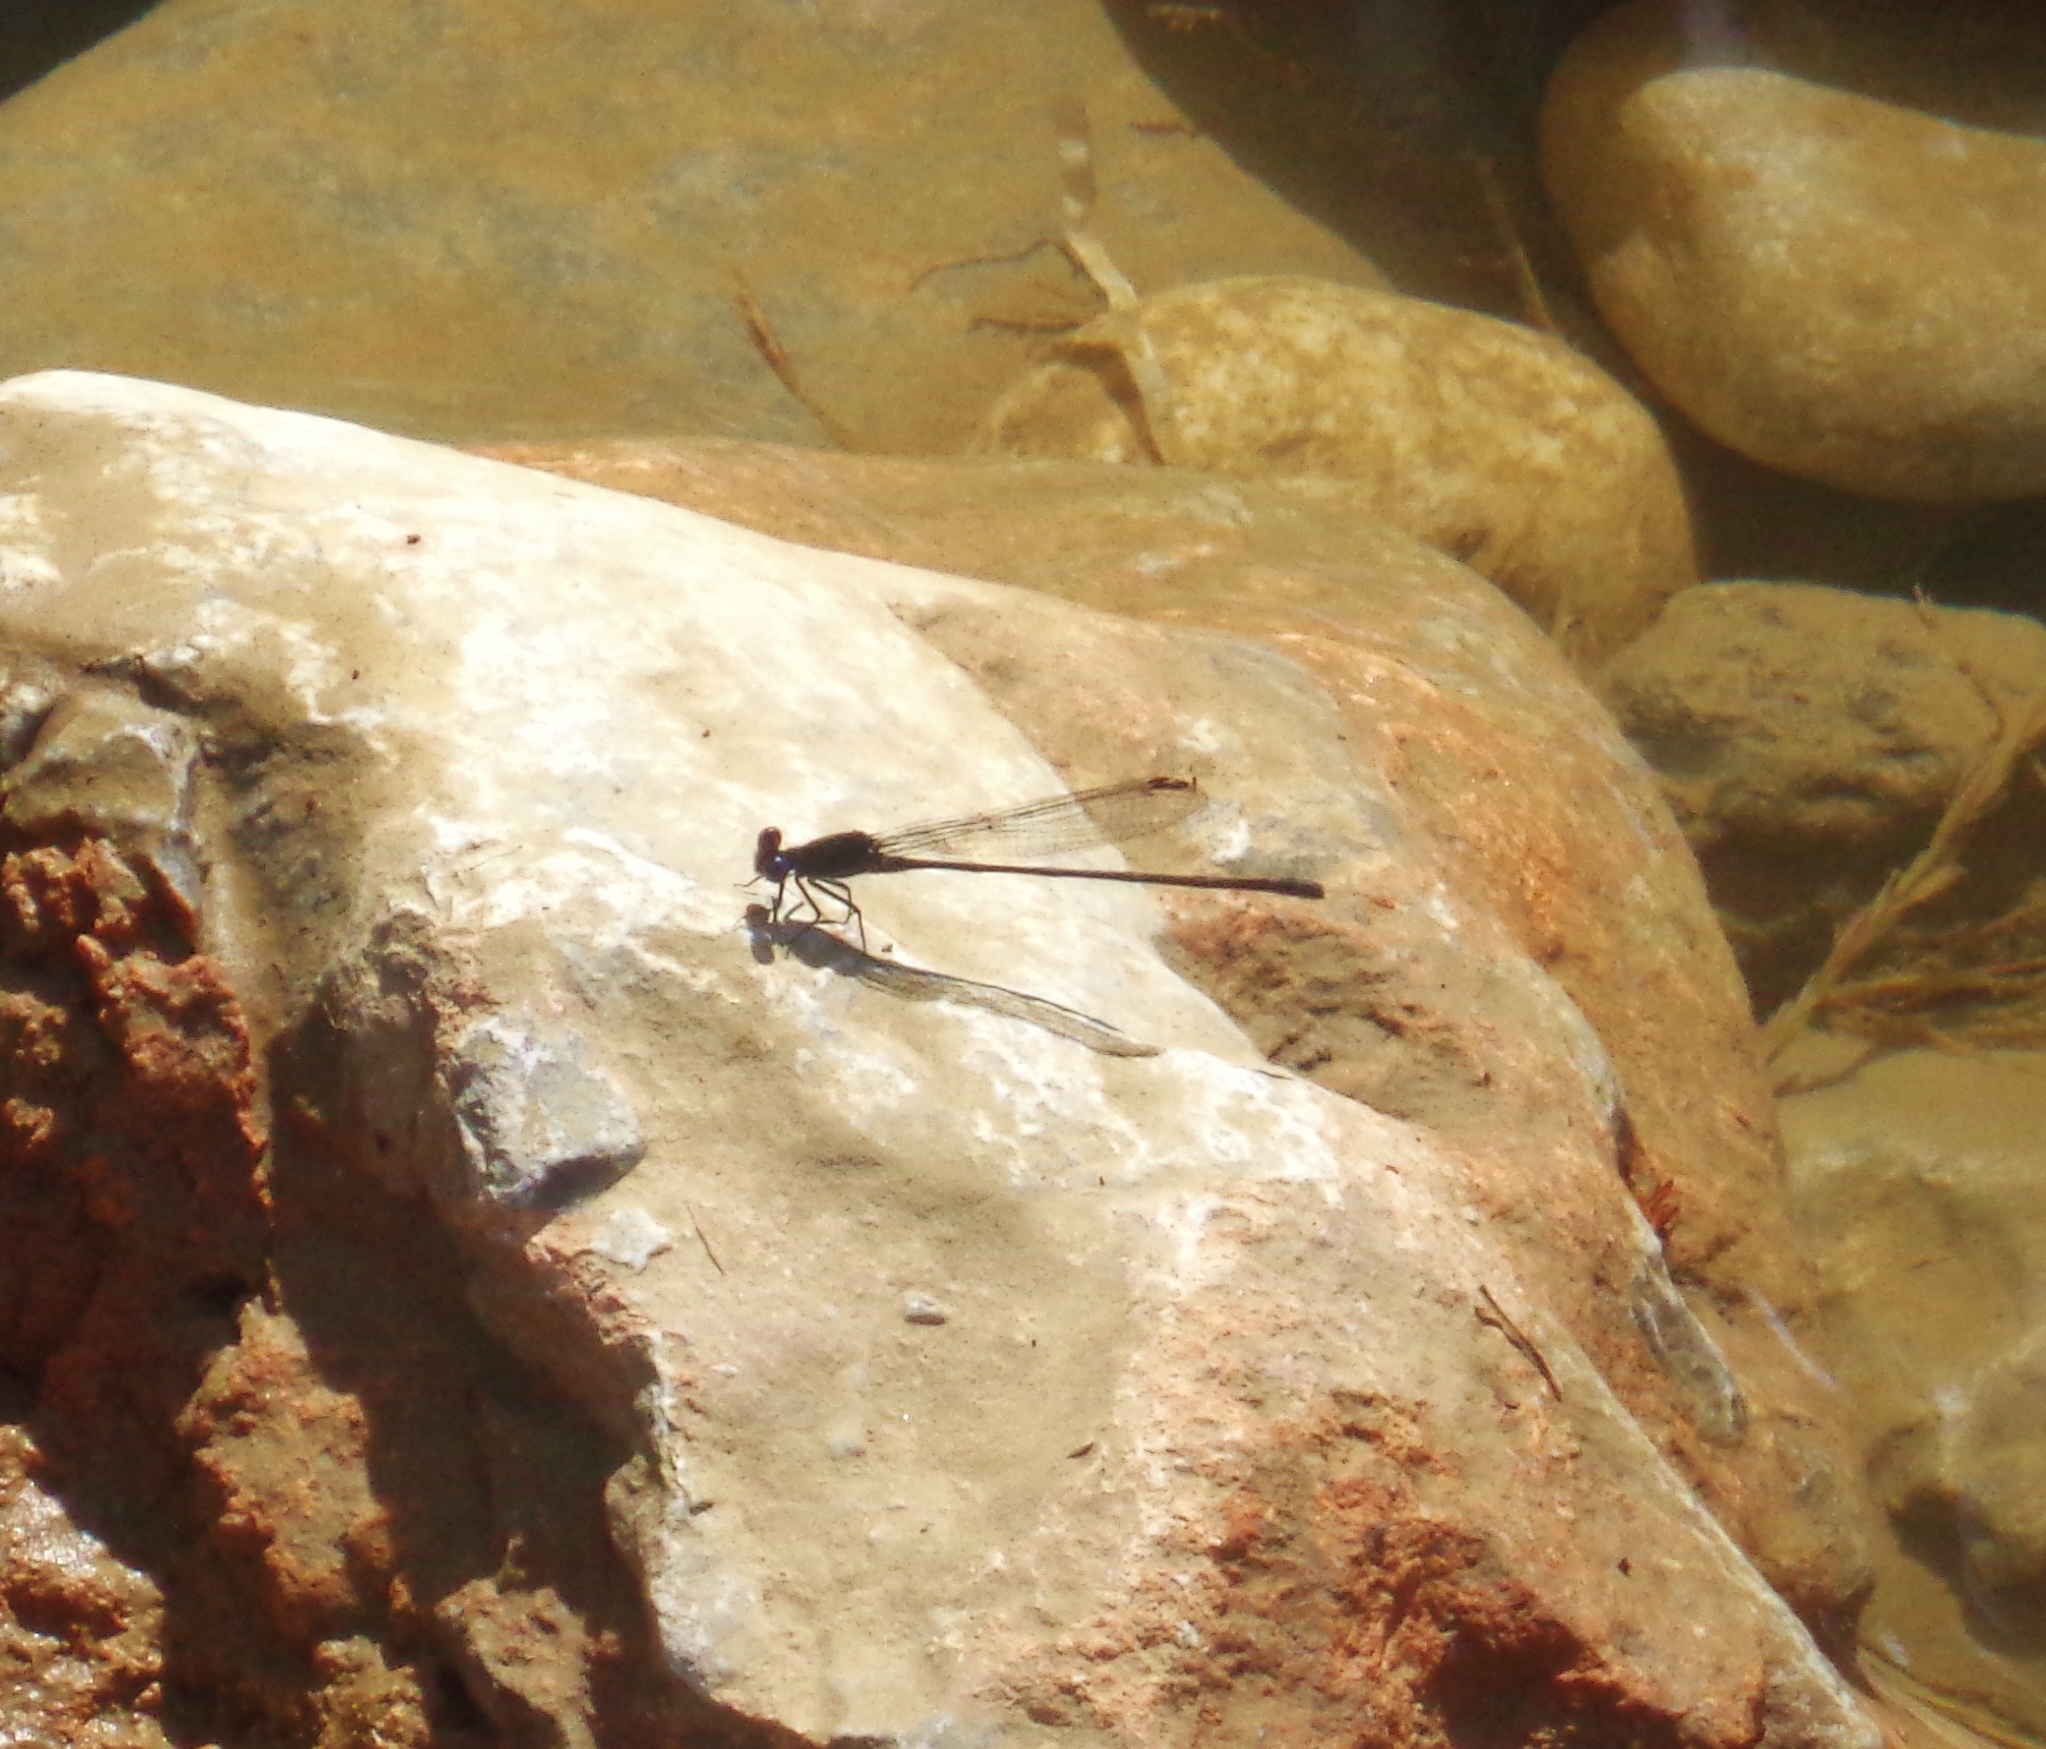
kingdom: Animalia
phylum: Arthropoda
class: Insecta
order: Odonata
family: Coenagrionidae
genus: Argia
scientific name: Argia translata
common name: Dusky dancer
